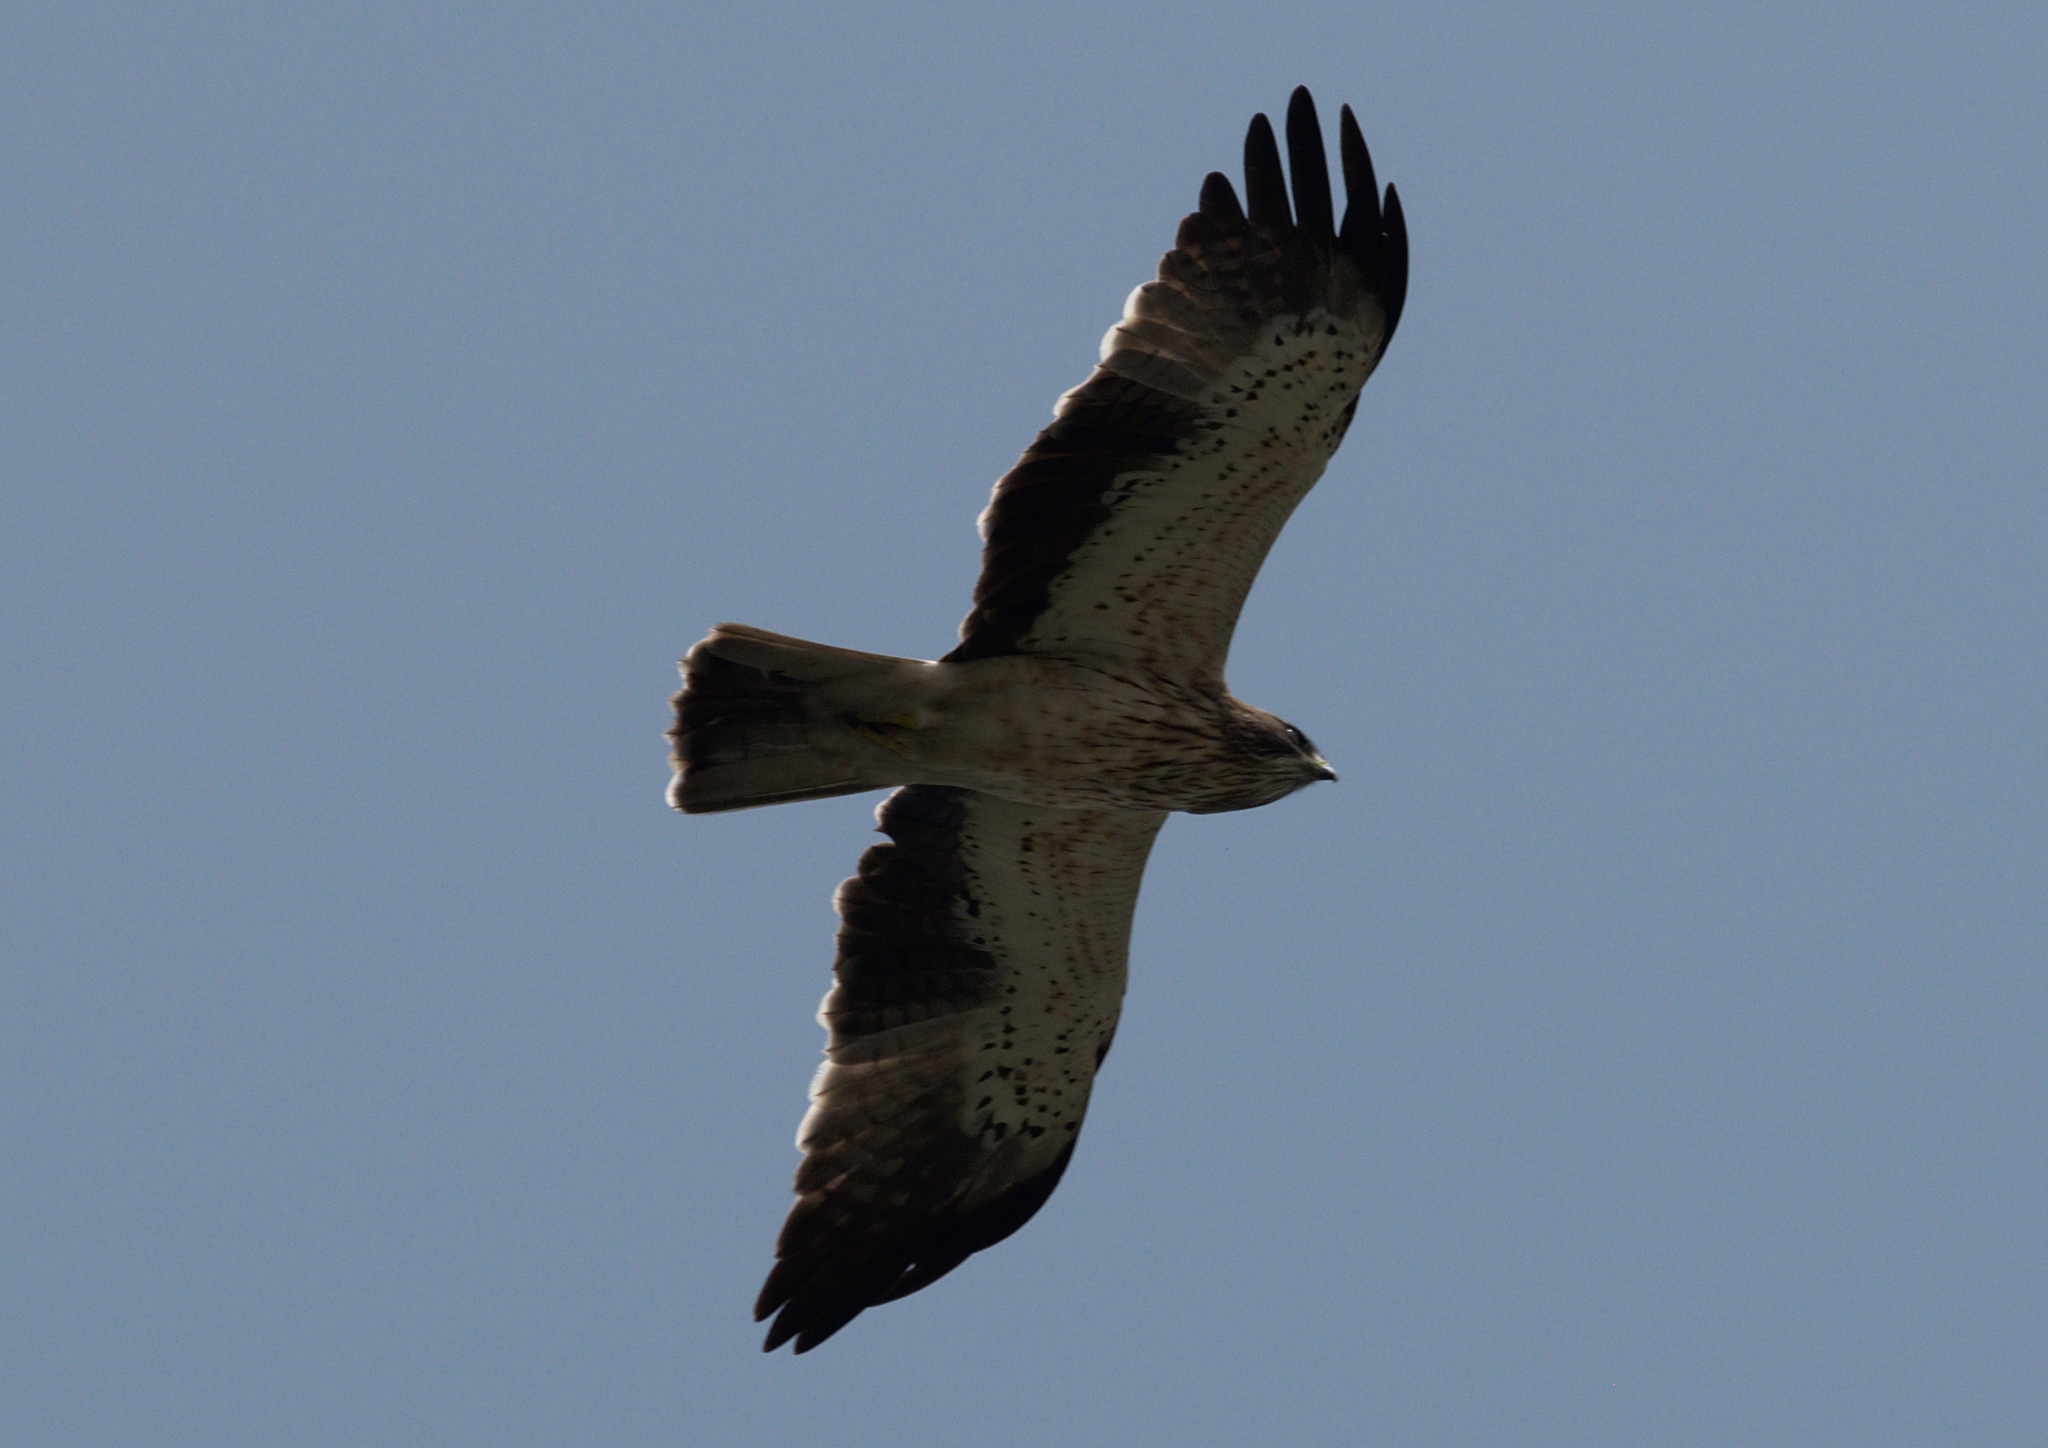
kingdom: Animalia
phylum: Chordata
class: Aves
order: Accipitriformes
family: Accipitridae
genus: Hieraaetus
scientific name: Hieraaetus pennatus
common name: Booted eagle
